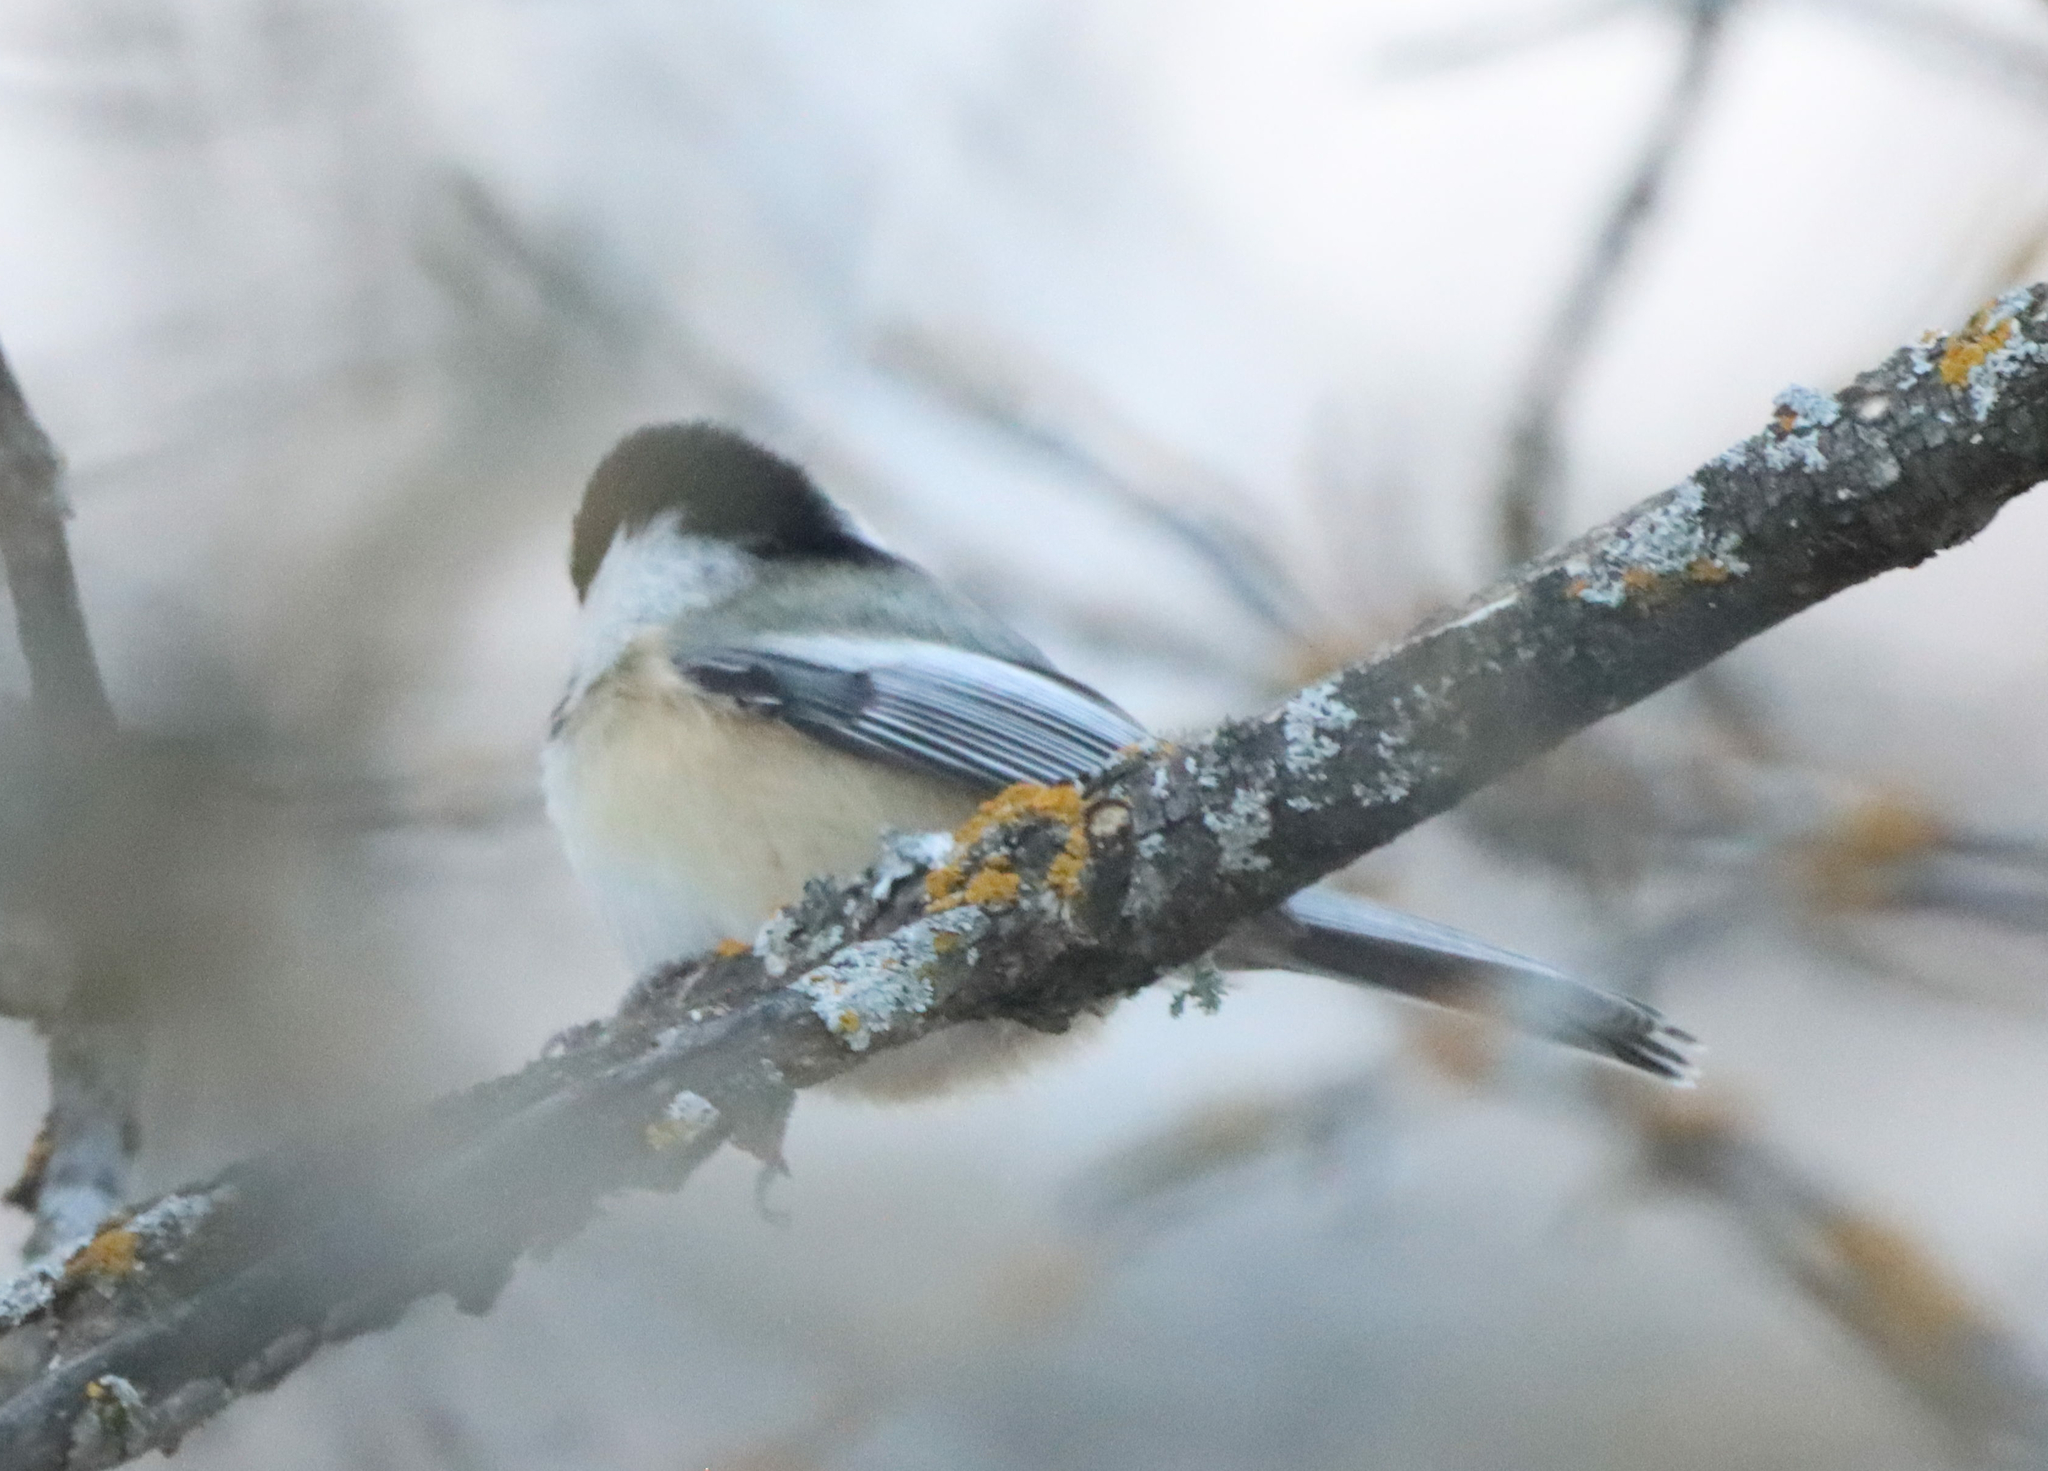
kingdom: Animalia
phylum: Chordata
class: Aves
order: Passeriformes
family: Paridae
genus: Poecile
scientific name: Poecile atricapillus
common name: Black-capped chickadee
